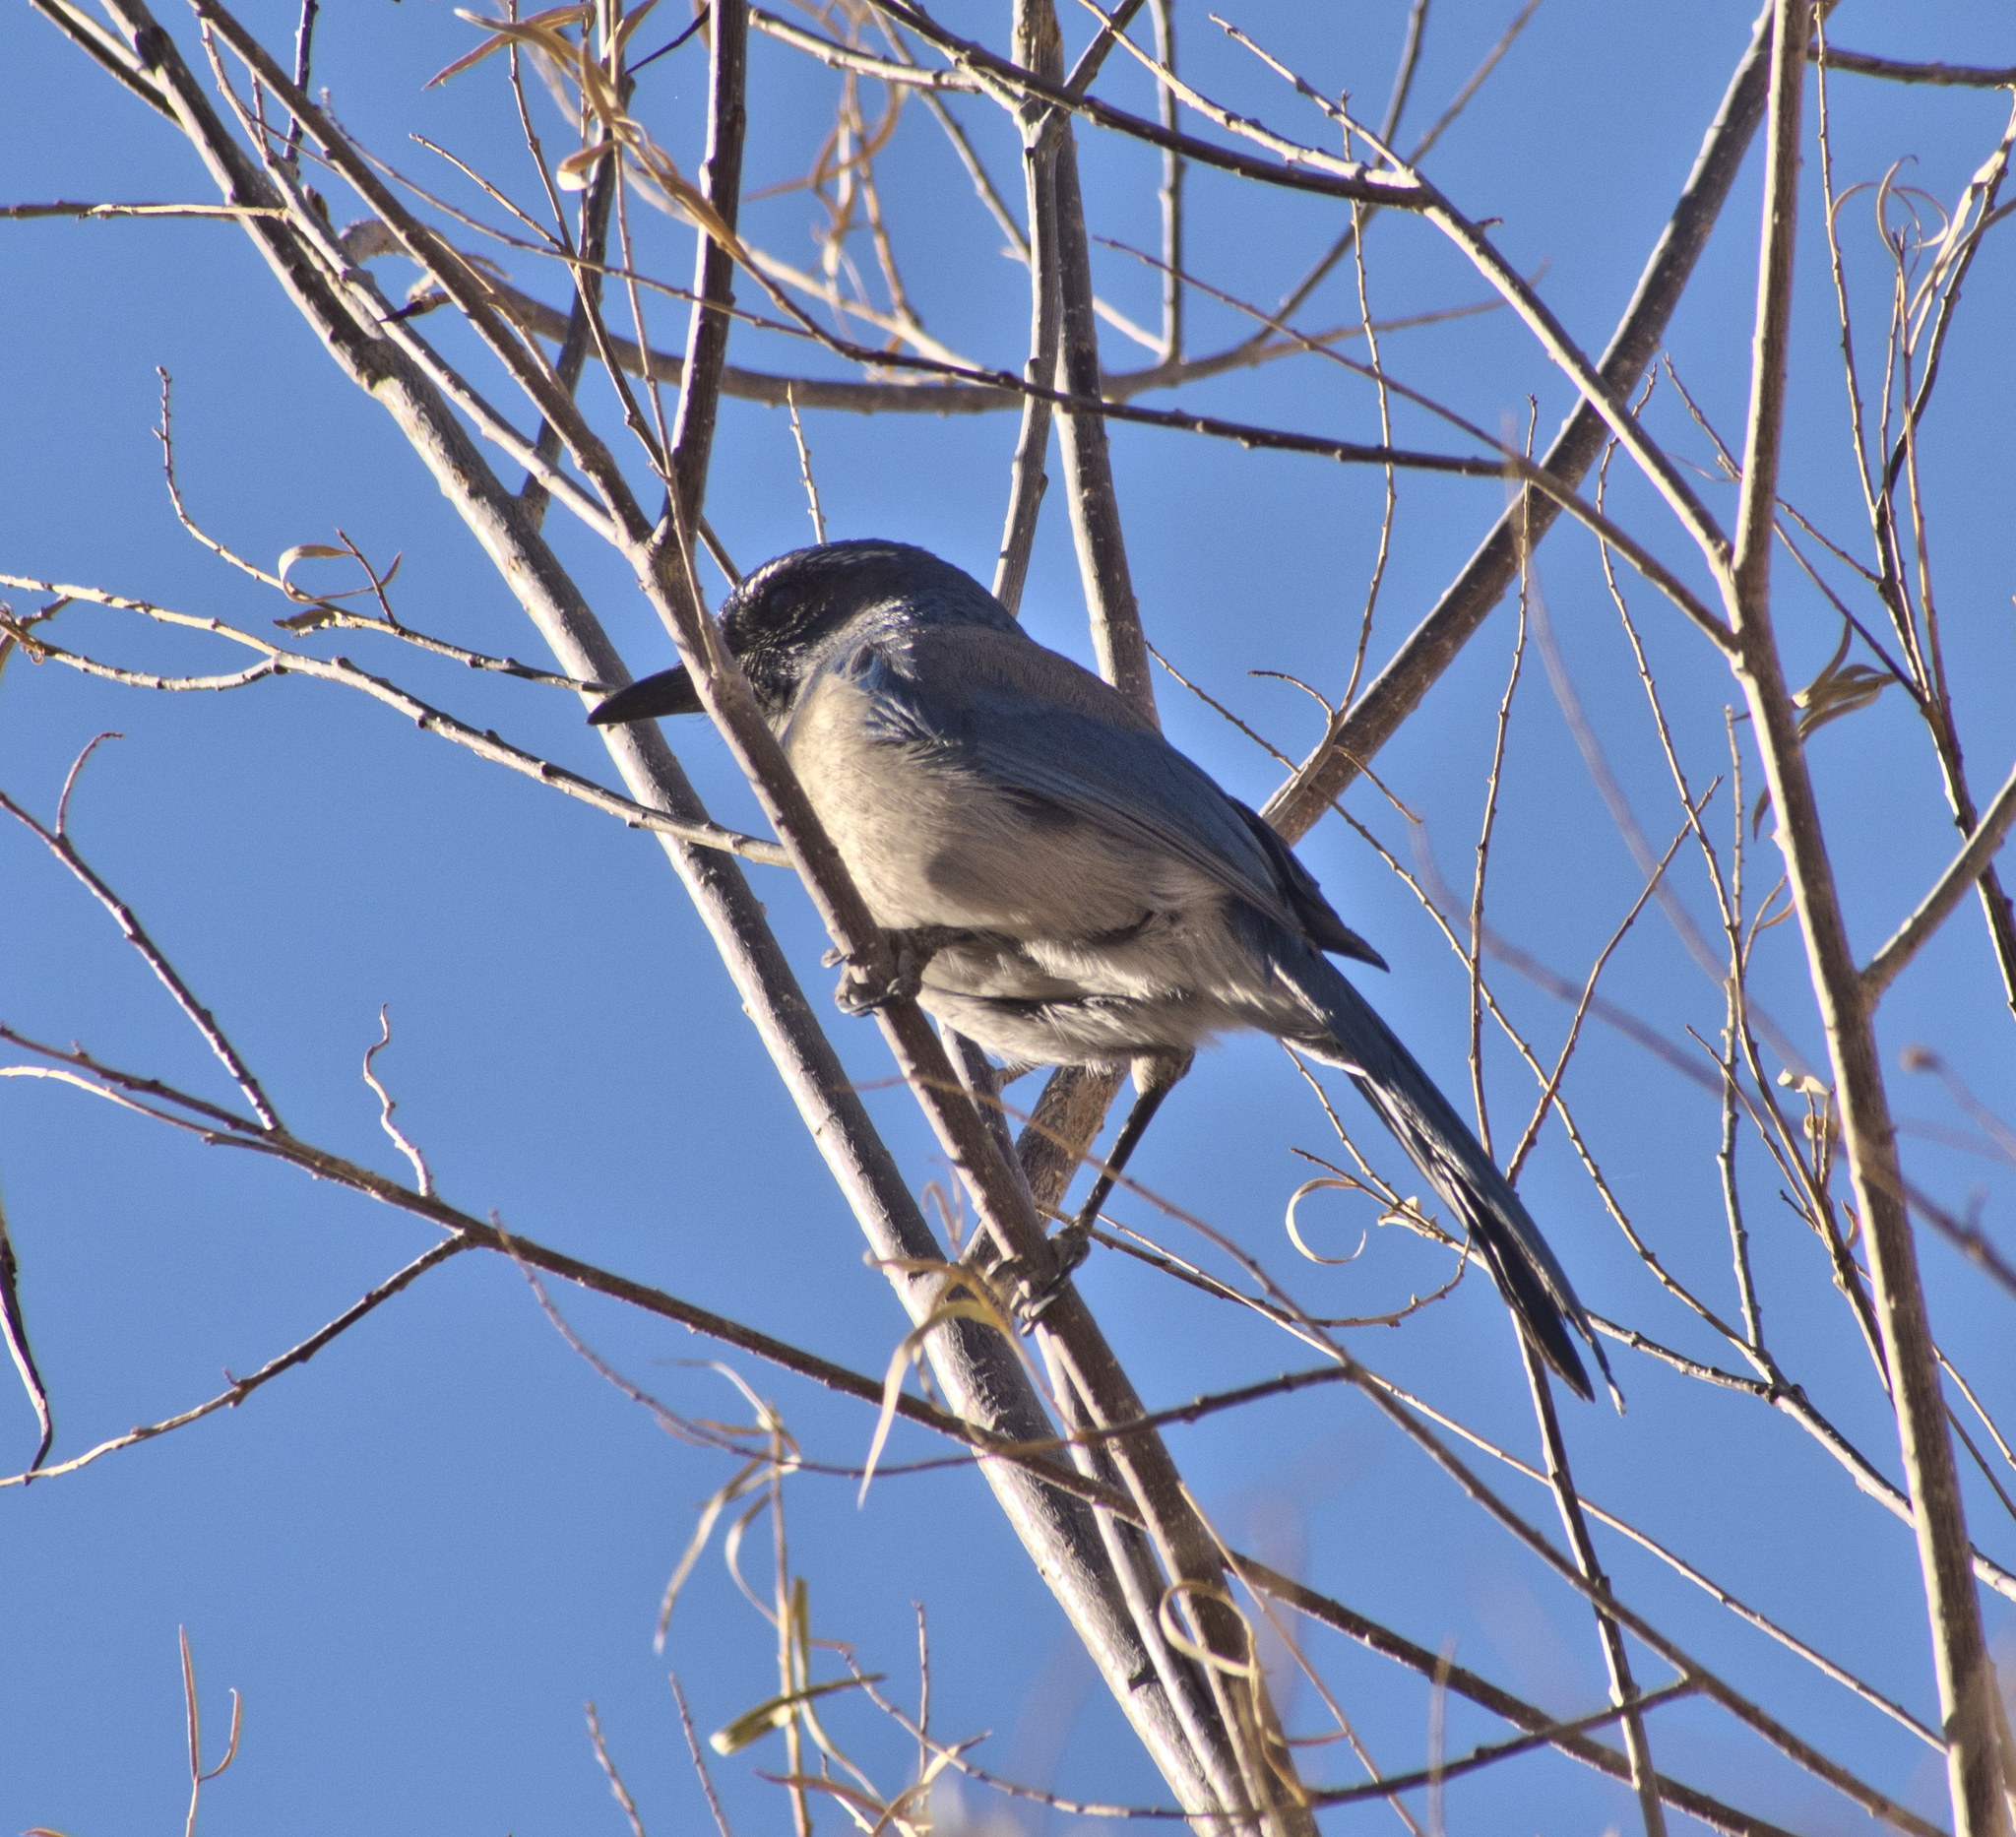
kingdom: Animalia
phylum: Chordata
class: Aves
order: Passeriformes
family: Corvidae
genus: Aphelocoma
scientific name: Aphelocoma californica
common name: California scrub-jay
